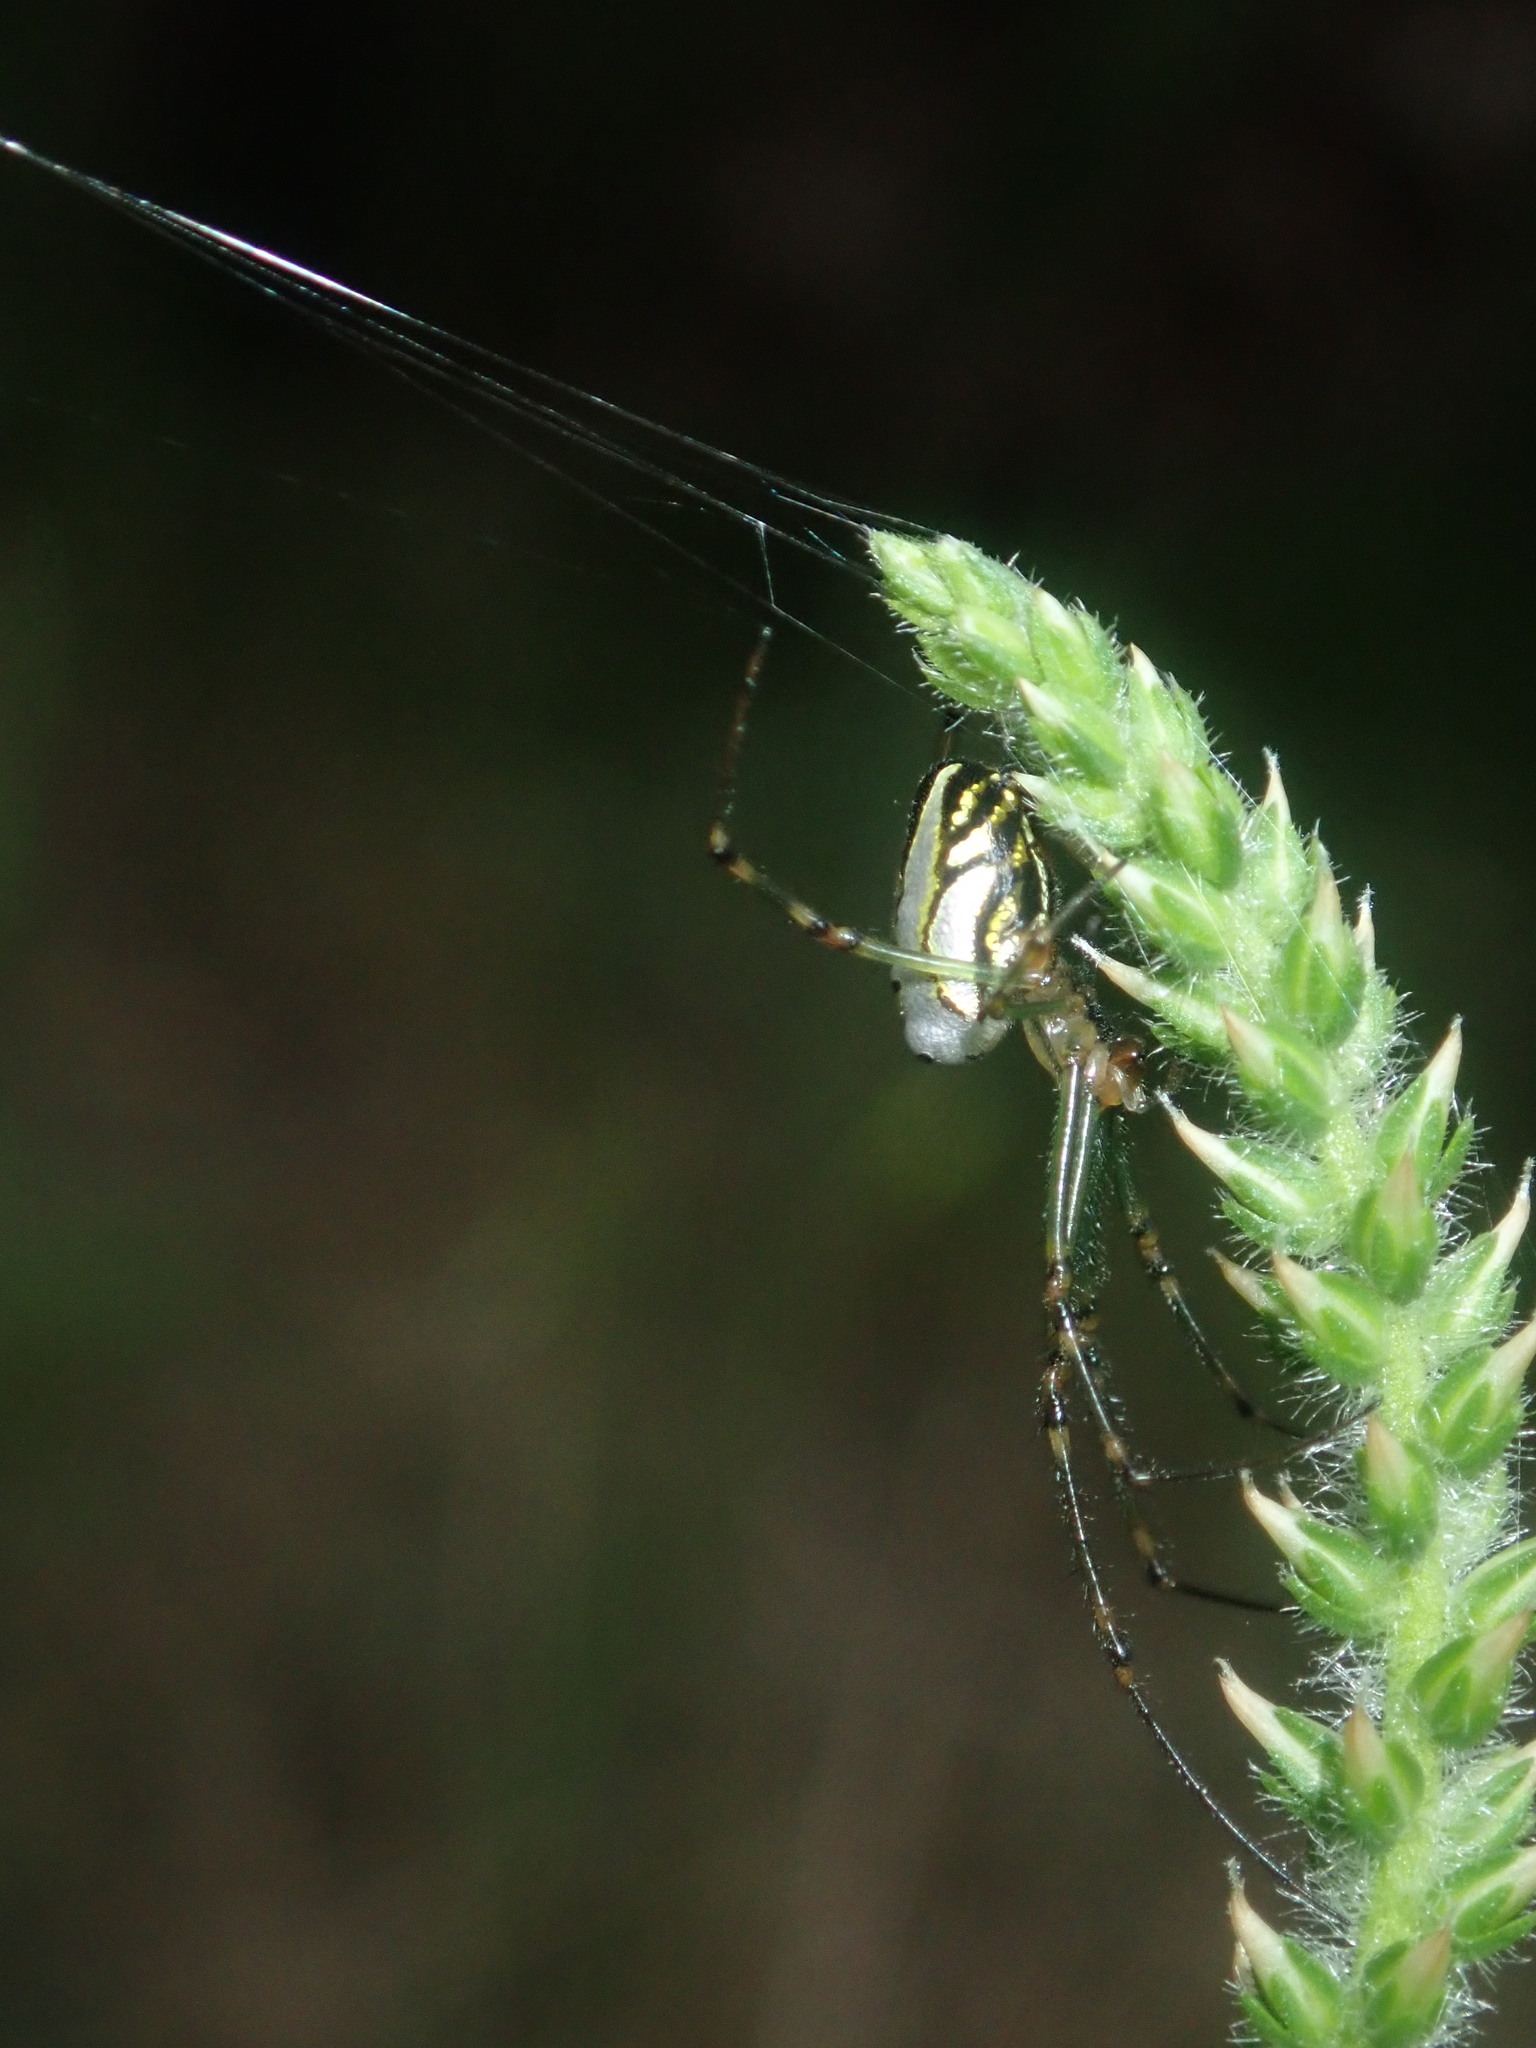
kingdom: Animalia
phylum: Arthropoda
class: Arachnida
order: Araneae
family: Tetragnathidae
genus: Leucauge
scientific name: Leucauge dromedaria
